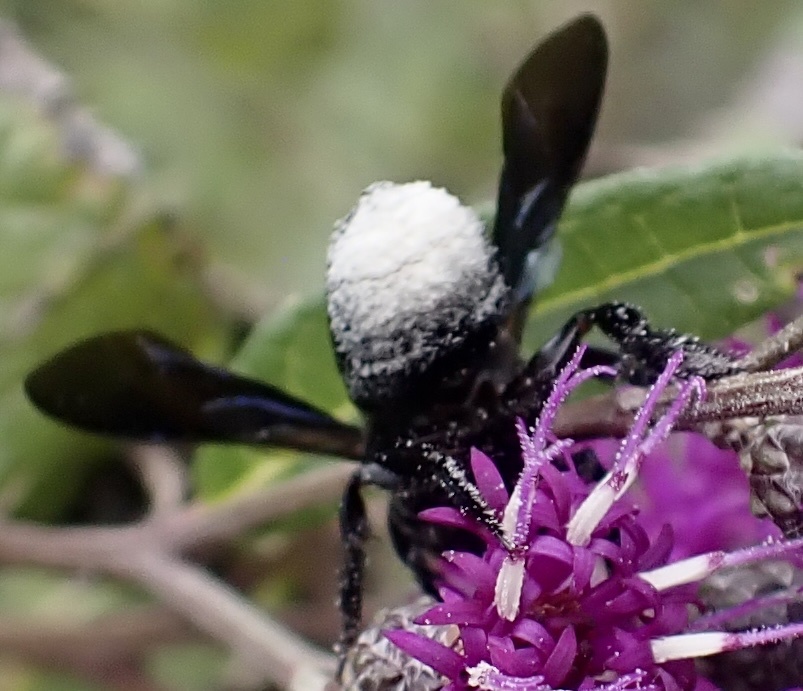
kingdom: Animalia
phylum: Arthropoda
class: Insecta
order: Hymenoptera
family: Megachilidae
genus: Megachile
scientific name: Megachile xylocopoides
